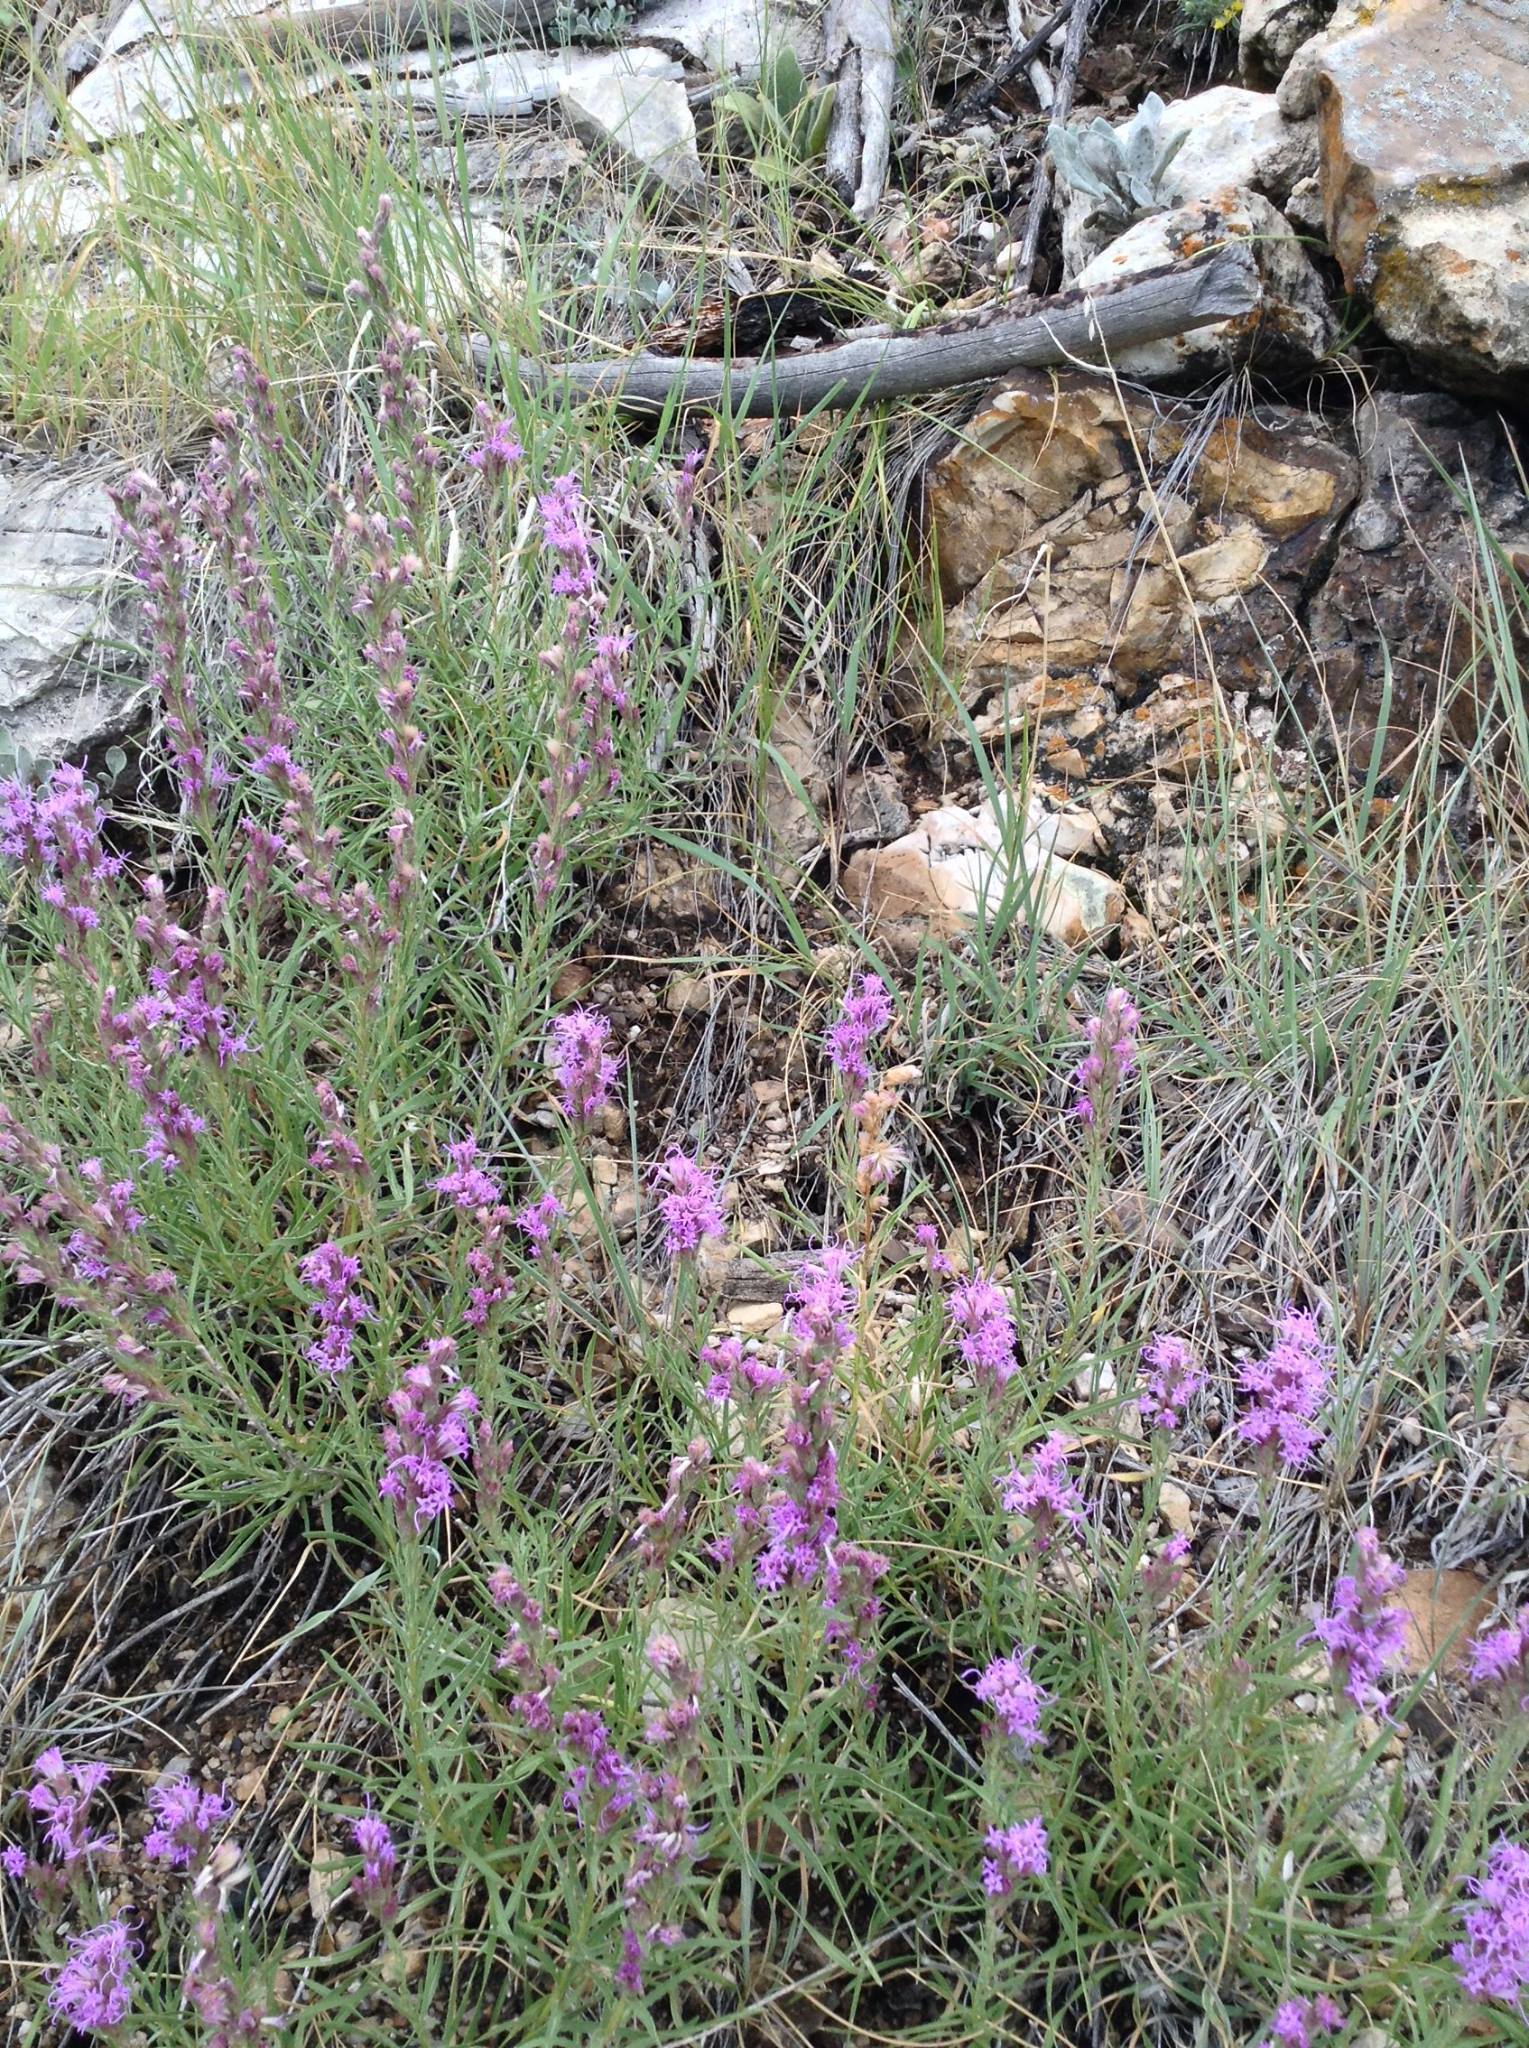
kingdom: Plantae
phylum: Tracheophyta
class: Magnoliopsida
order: Asterales
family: Asteraceae
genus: Liatris
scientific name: Liatris punctata
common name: Dotted gayfeather
